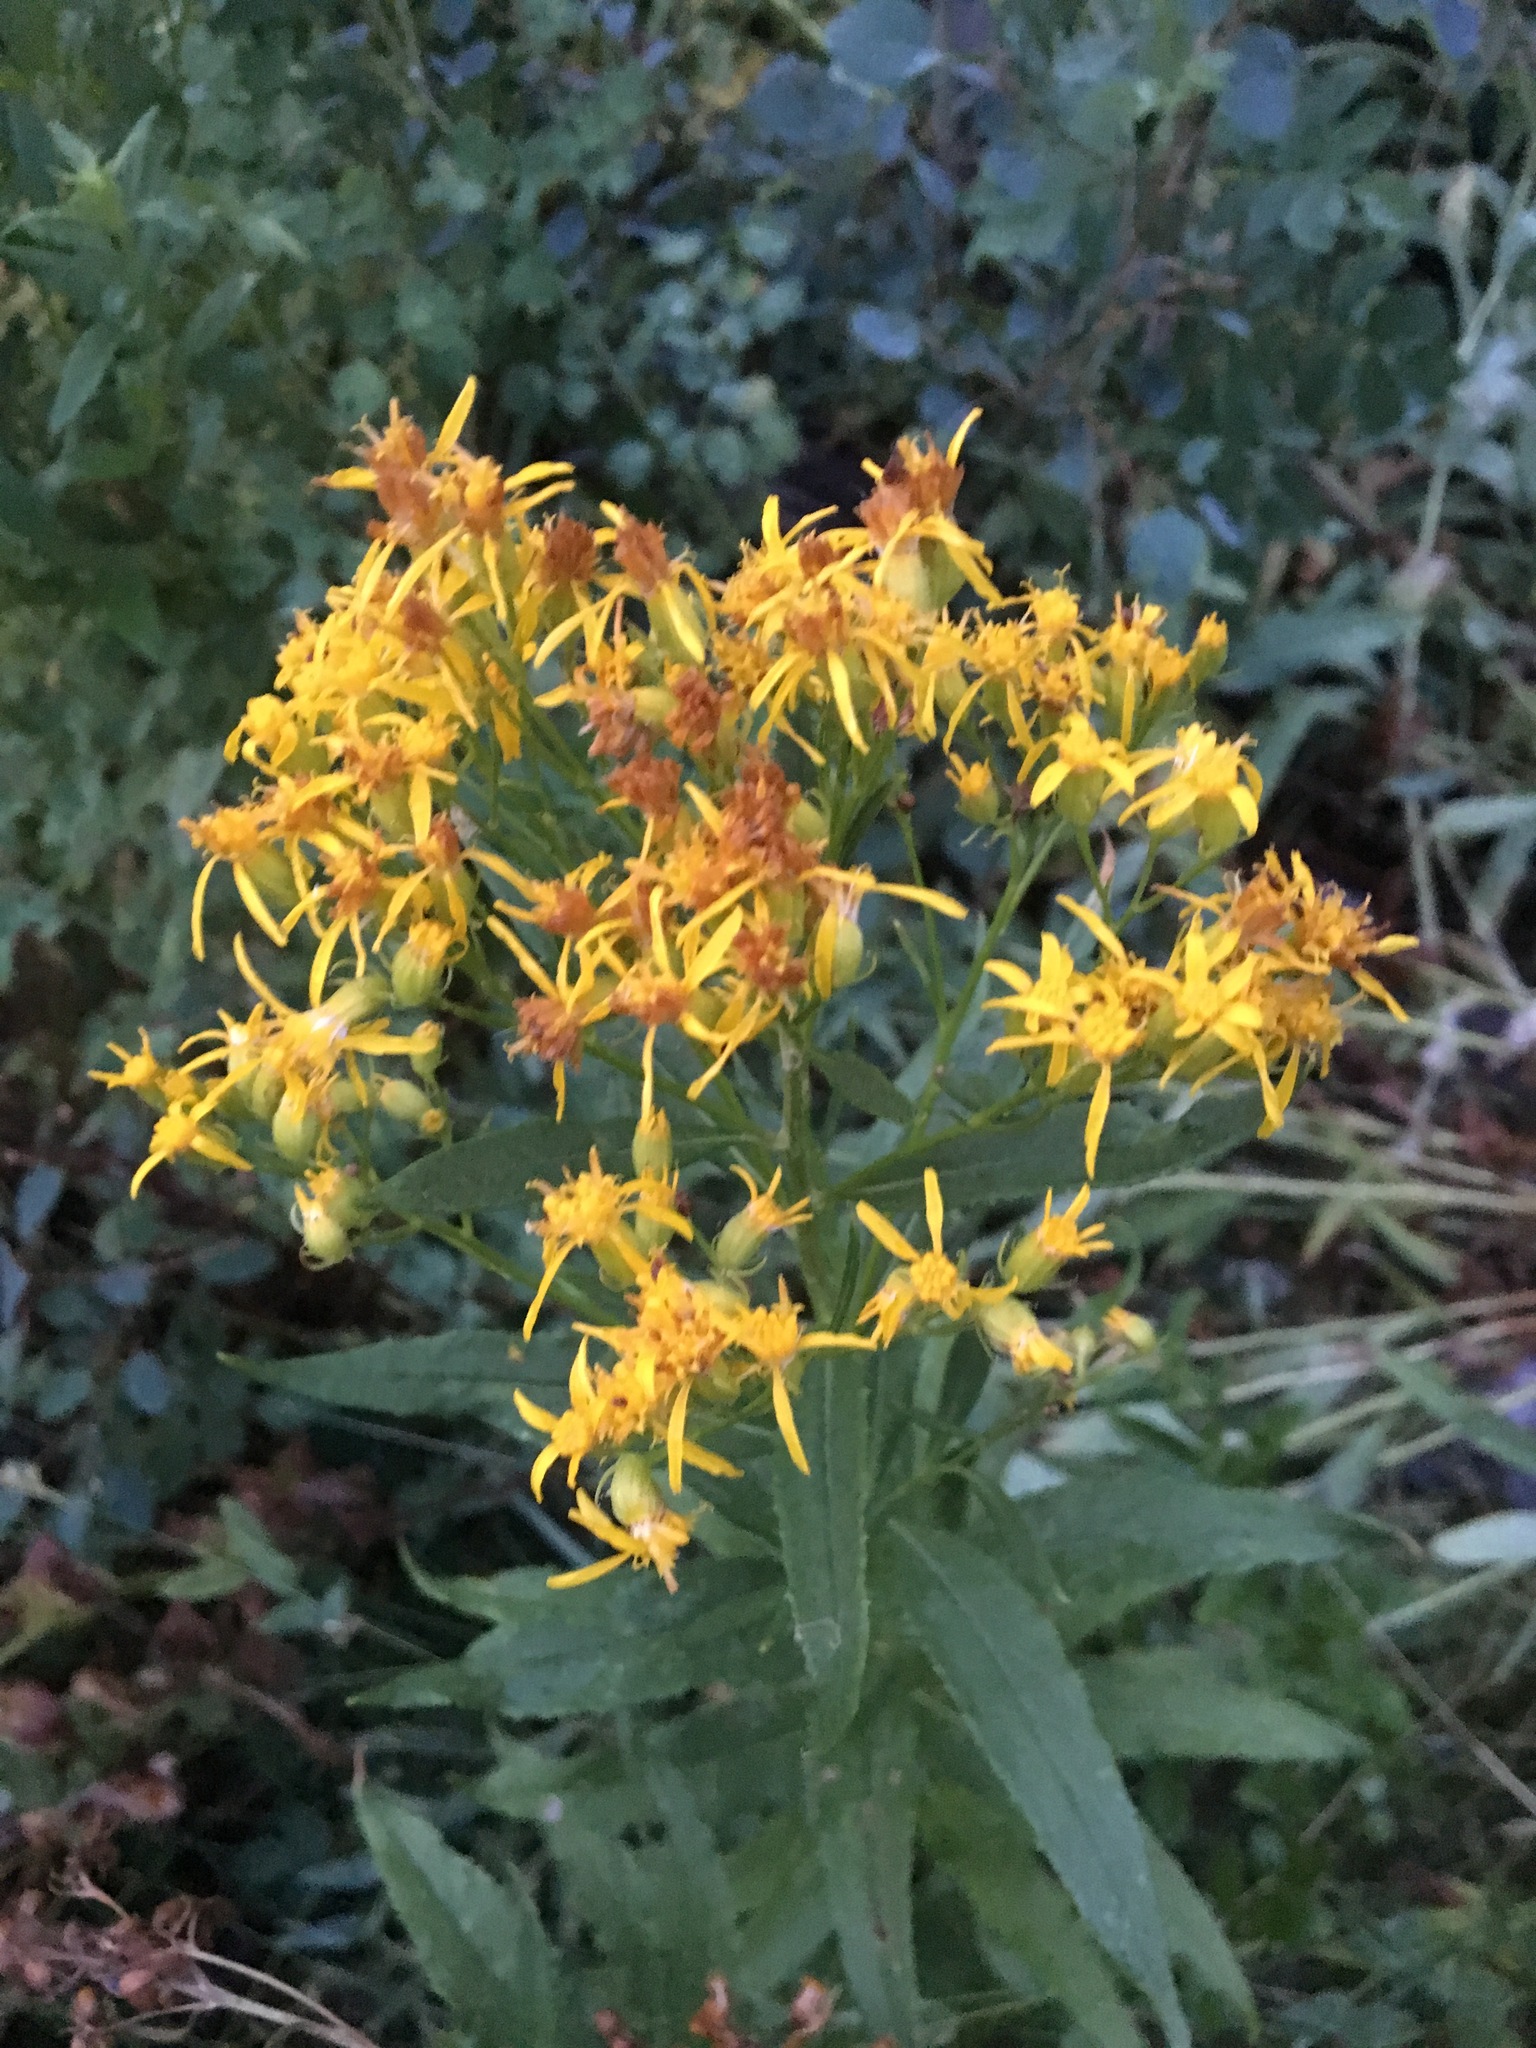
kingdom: Plantae
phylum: Tracheophyta
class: Magnoliopsida
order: Asterales
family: Asteraceae
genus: Senecio
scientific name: Senecio serra
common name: Tall ragwort
